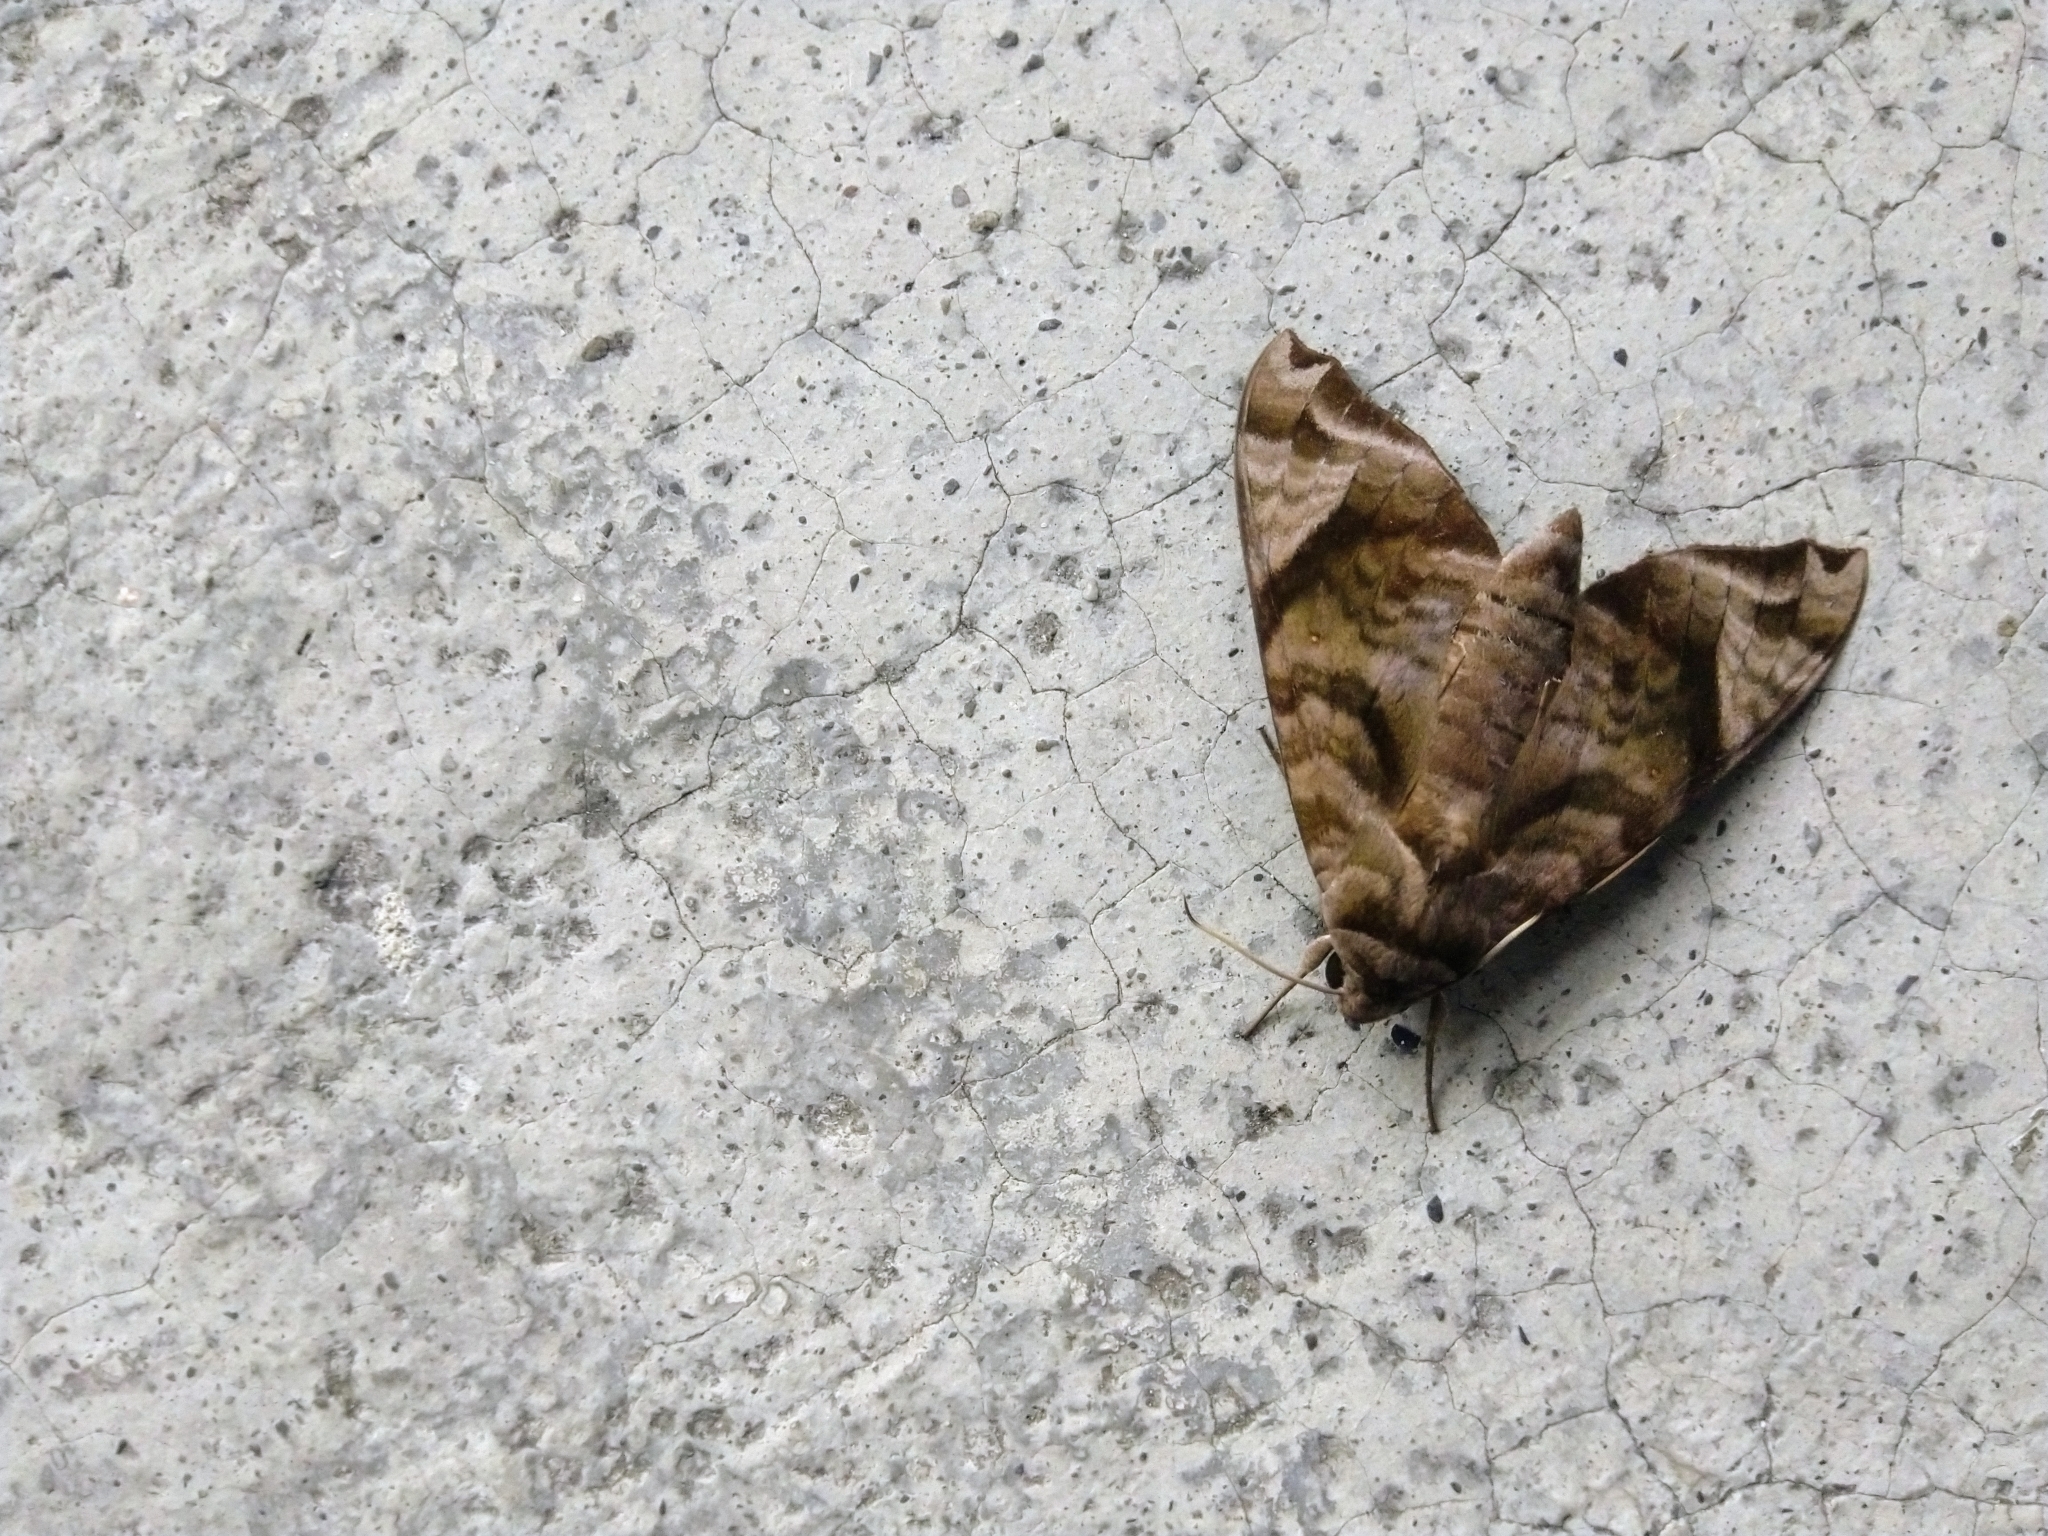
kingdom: Animalia
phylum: Arthropoda
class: Insecta
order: Lepidoptera
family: Sphingidae
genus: Acosmeryx
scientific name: Acosmeryx castanea
